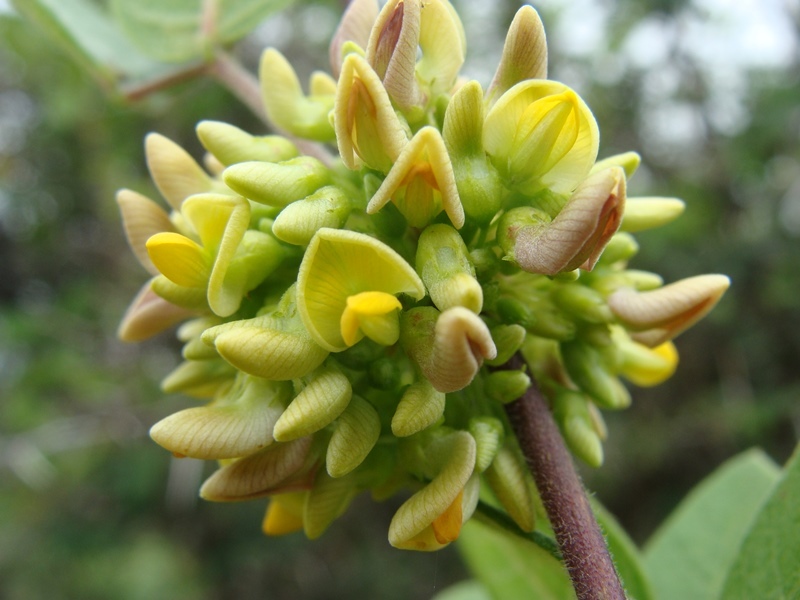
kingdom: Plantae
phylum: Tracheophyta
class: Magnoliopsida
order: Fabales
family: Fabaceae
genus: Nissolia
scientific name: Nissolia microptera
